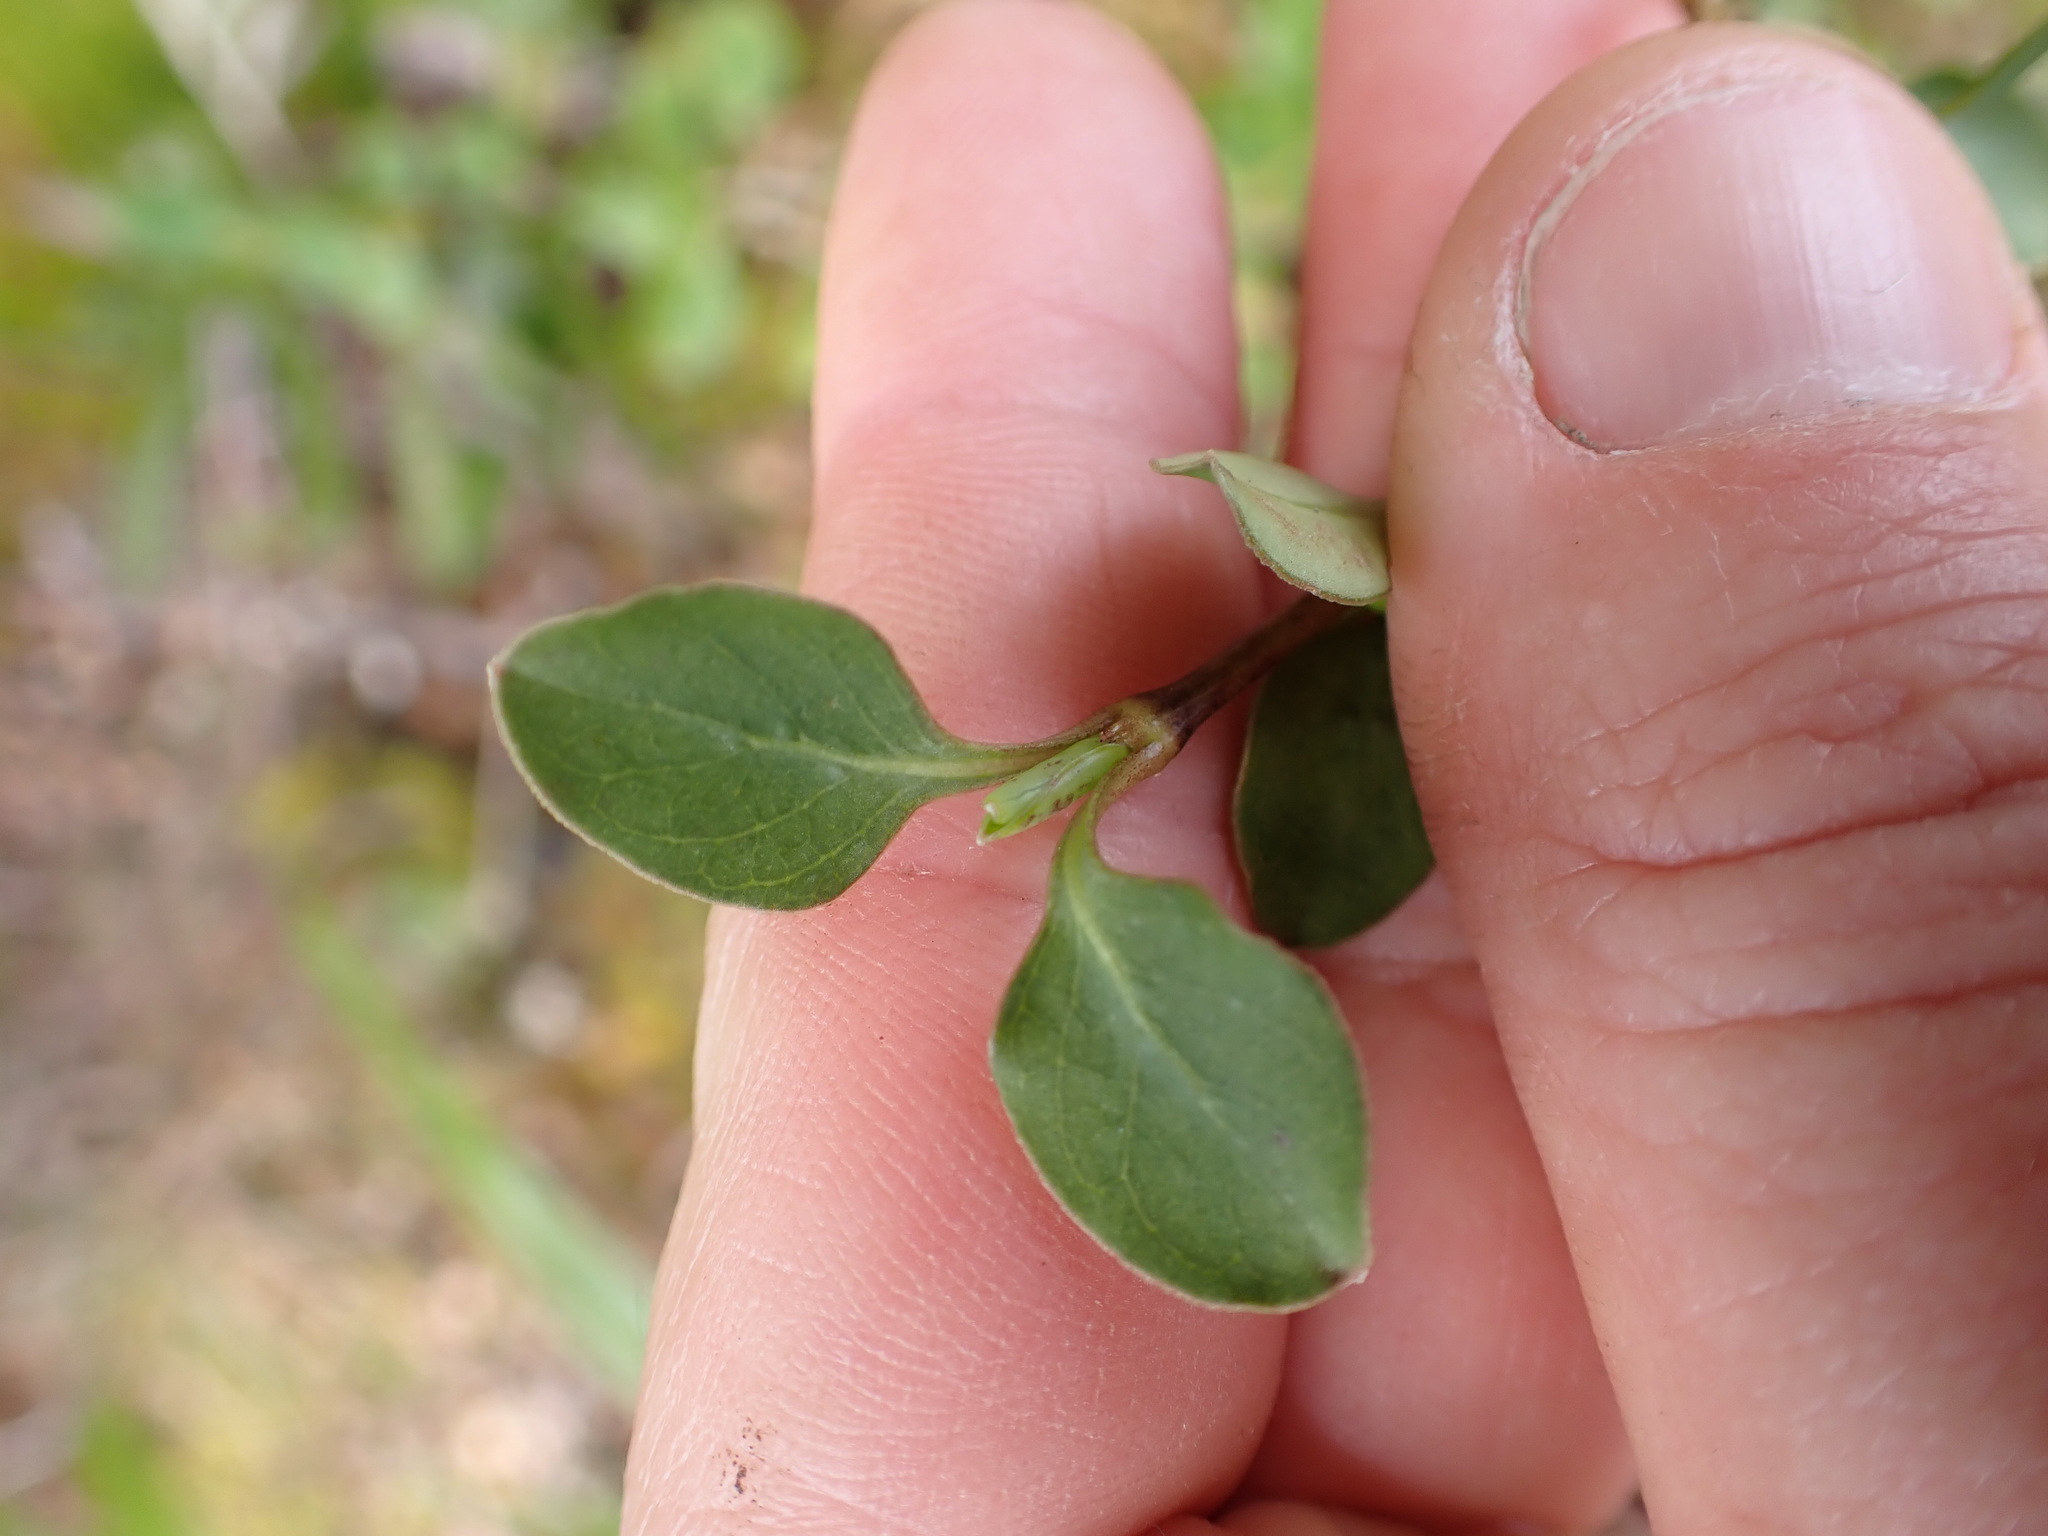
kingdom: Plantae
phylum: Tracheophyta
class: Magnoliopsida
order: Gentianales
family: Rubiaceae
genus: Coprosma
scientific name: Coprosma foetidissima
